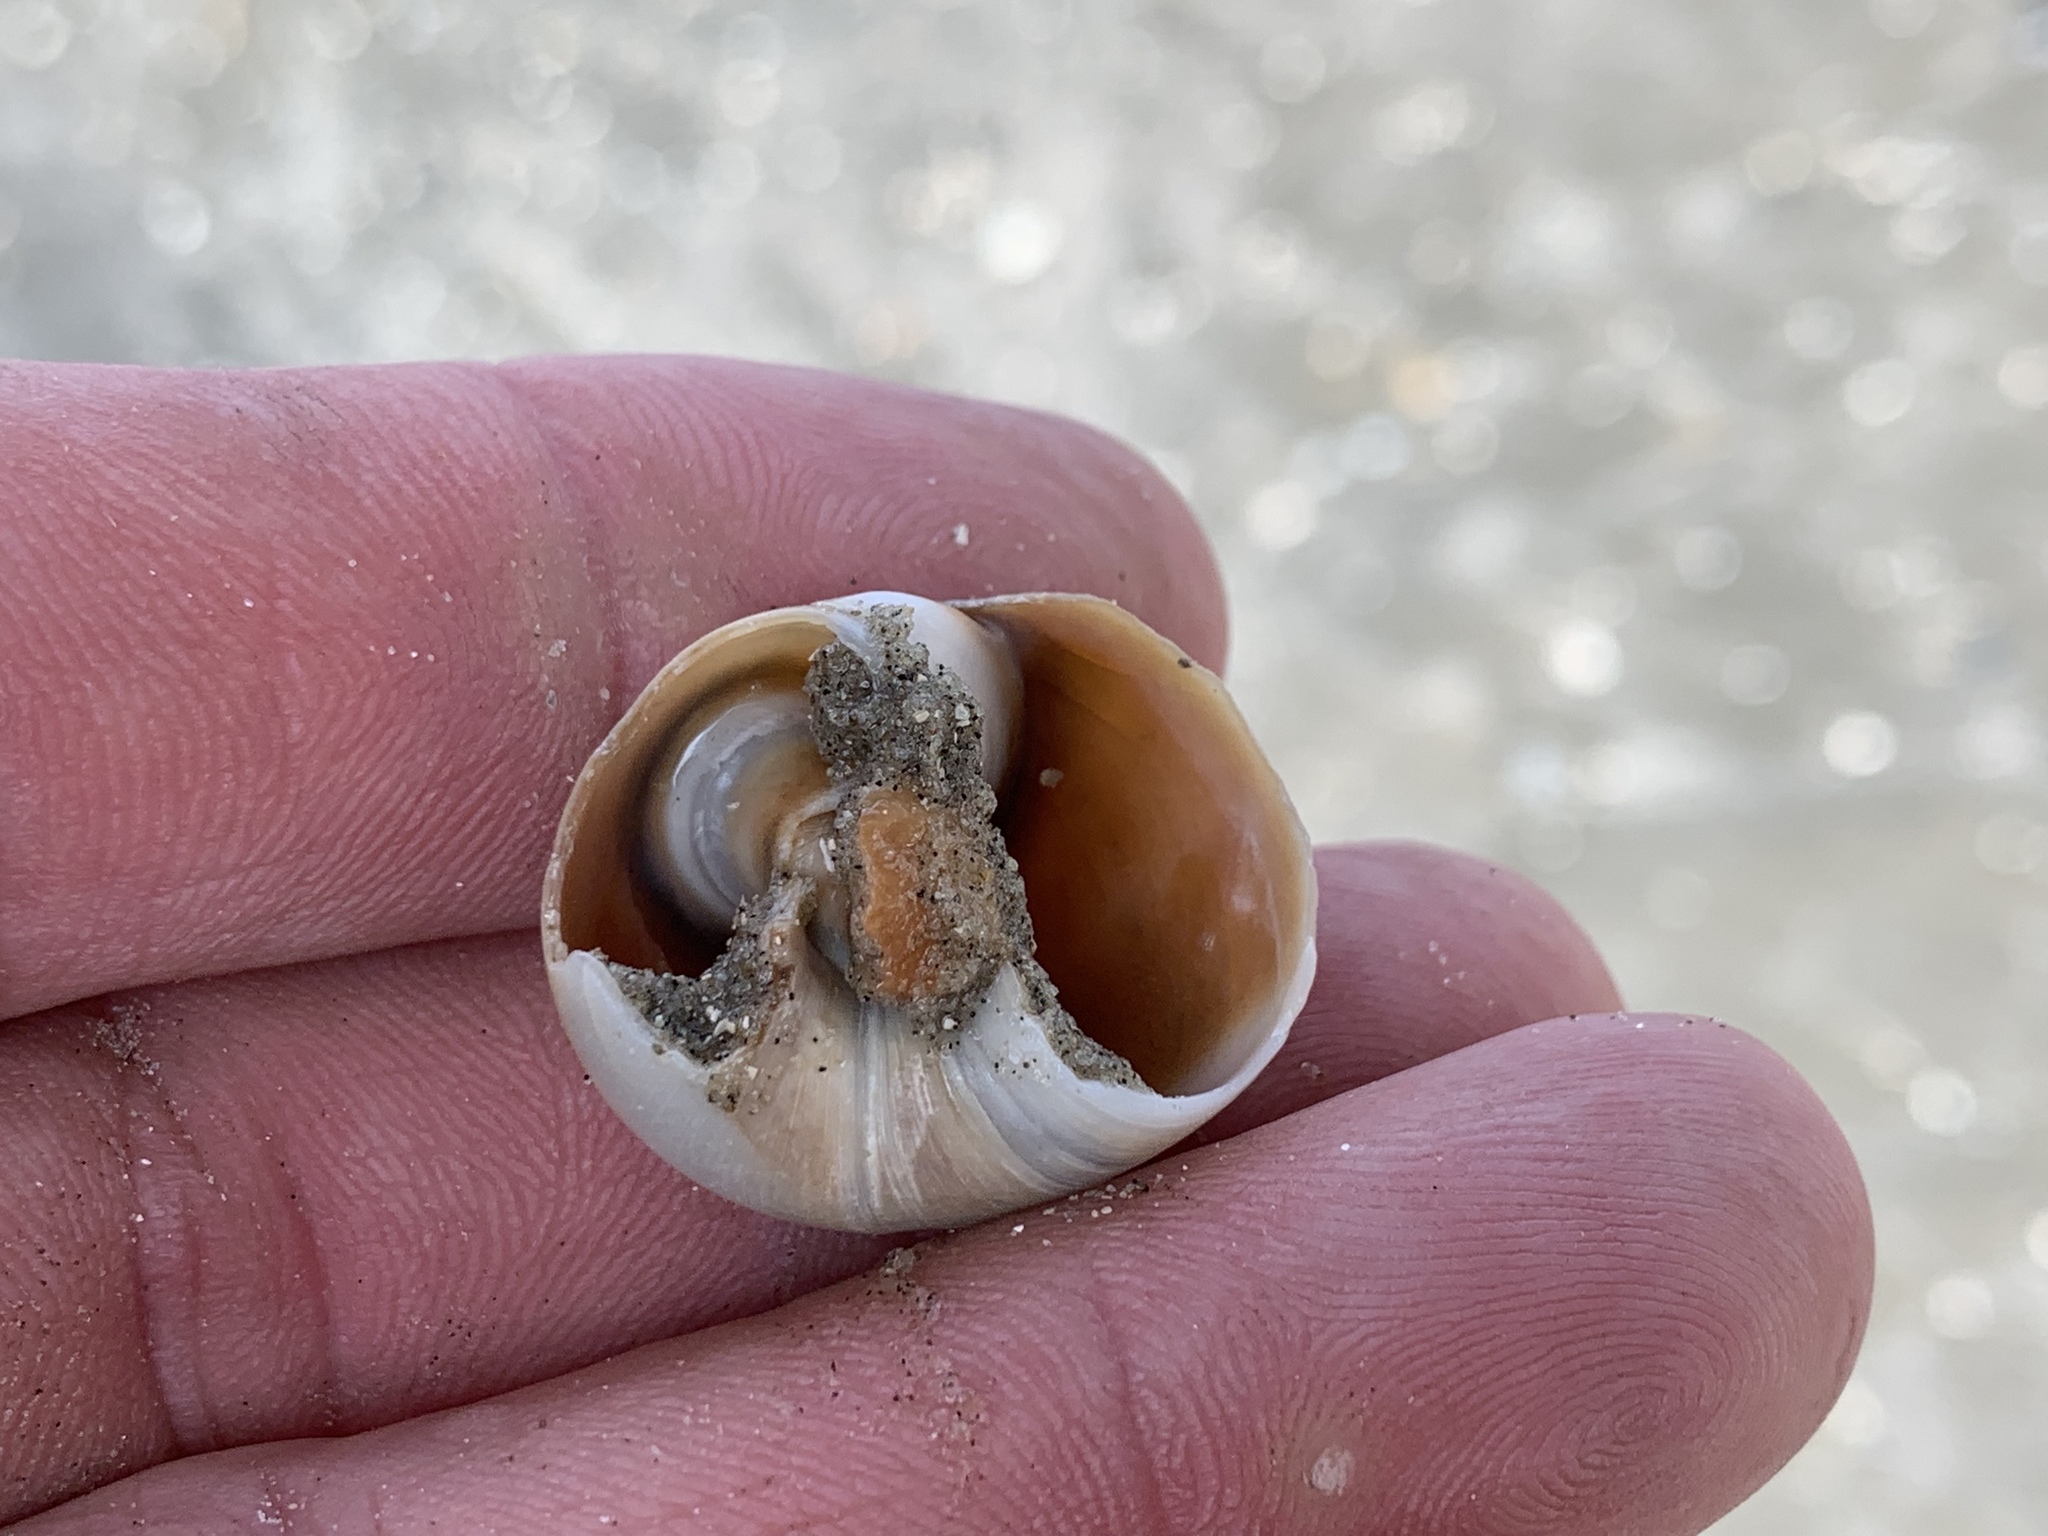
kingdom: Animalia
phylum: Mollusca
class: Gastropoda
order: Littorinimorpha
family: Naticidae
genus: Neverita
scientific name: Neverita duplicata
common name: Lobed moonsnail
